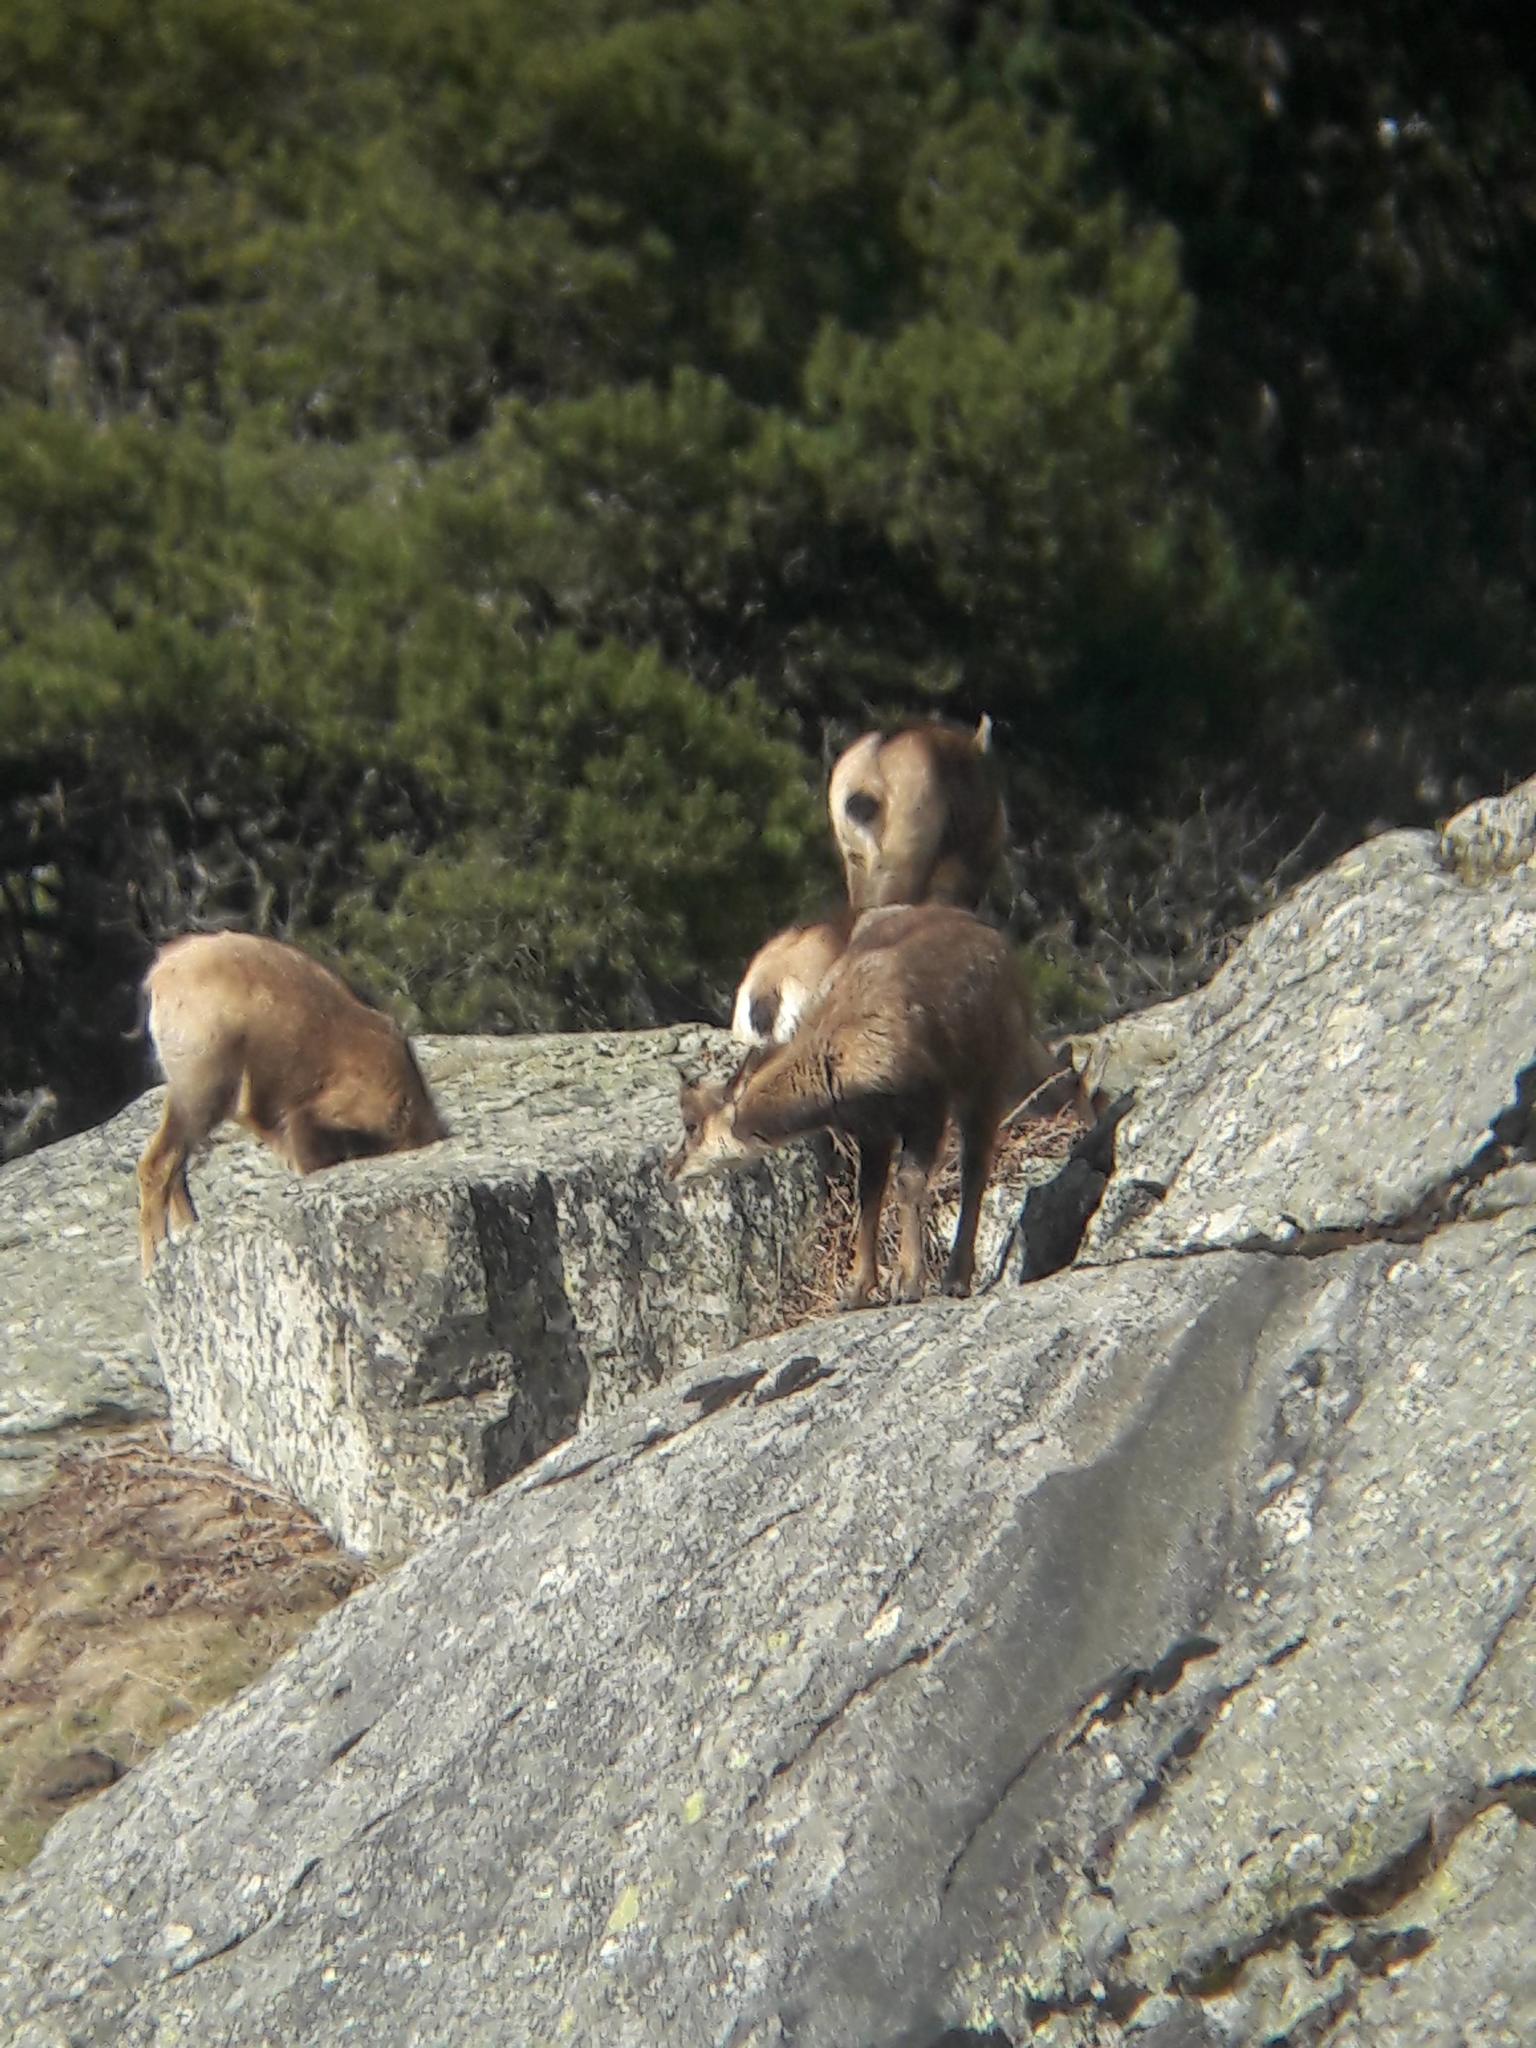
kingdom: Animalia
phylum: Chordata
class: Mammalia
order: Artiodactyla
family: Bovidae
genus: Rupicapra
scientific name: Rupicapra pyrenaica
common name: Pyrenean chamois
